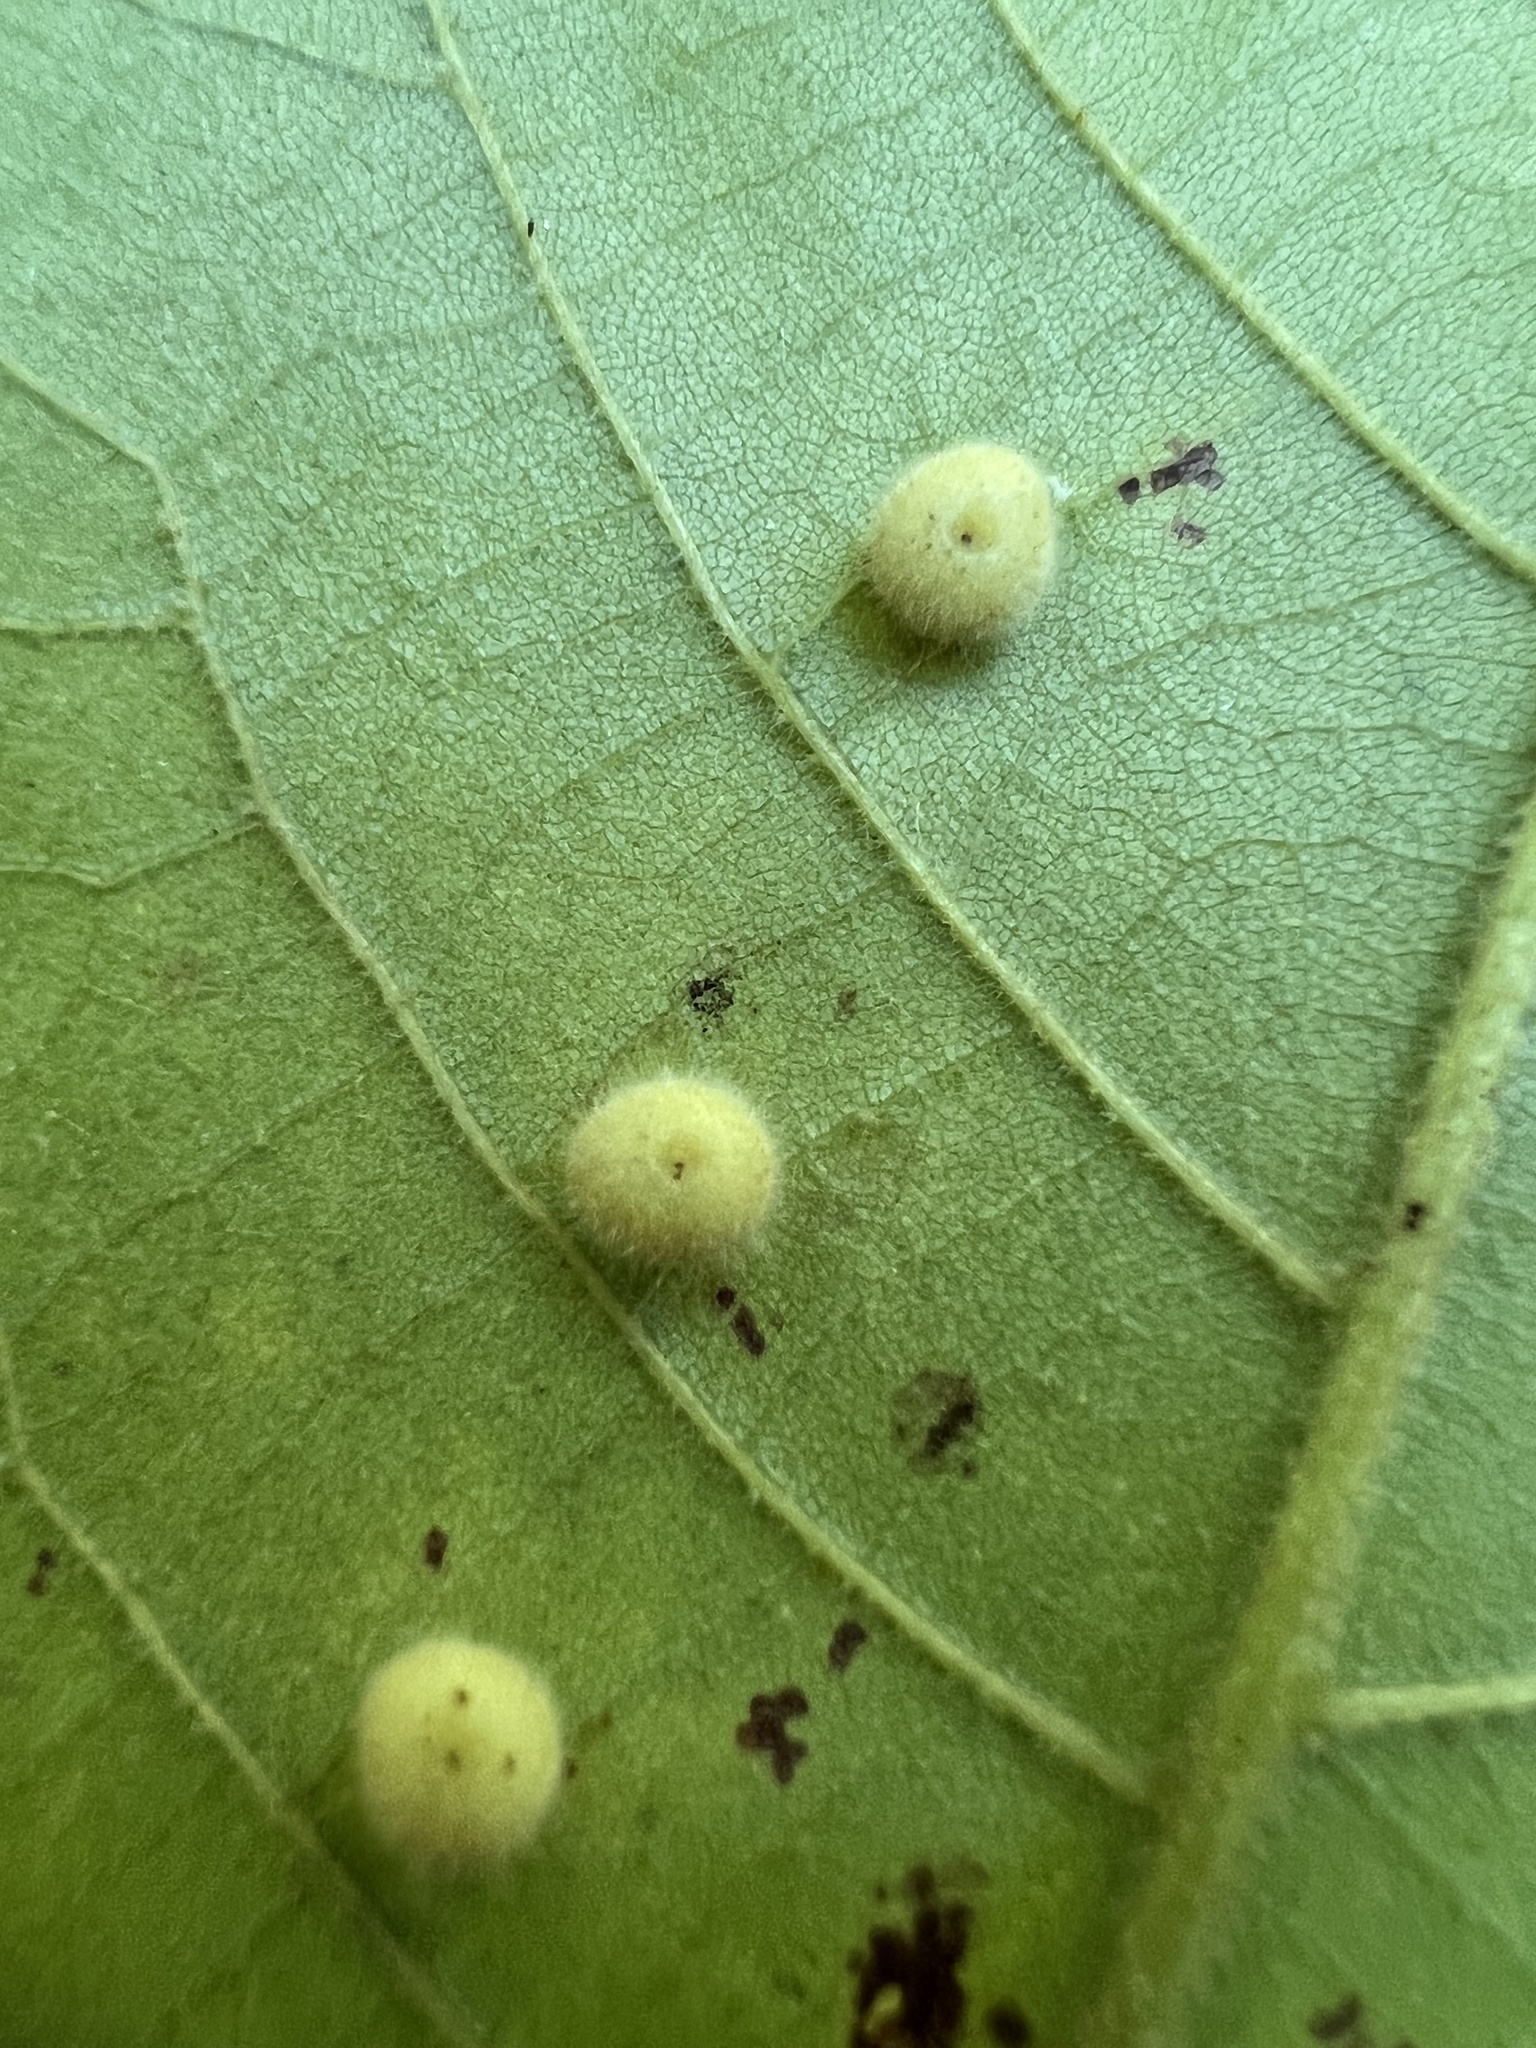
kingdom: Animalia
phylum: Arthropoda
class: Insecta
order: Diptera
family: Cecidomyiidae
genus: Caryomyia
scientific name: Caryomyia thompsoni
